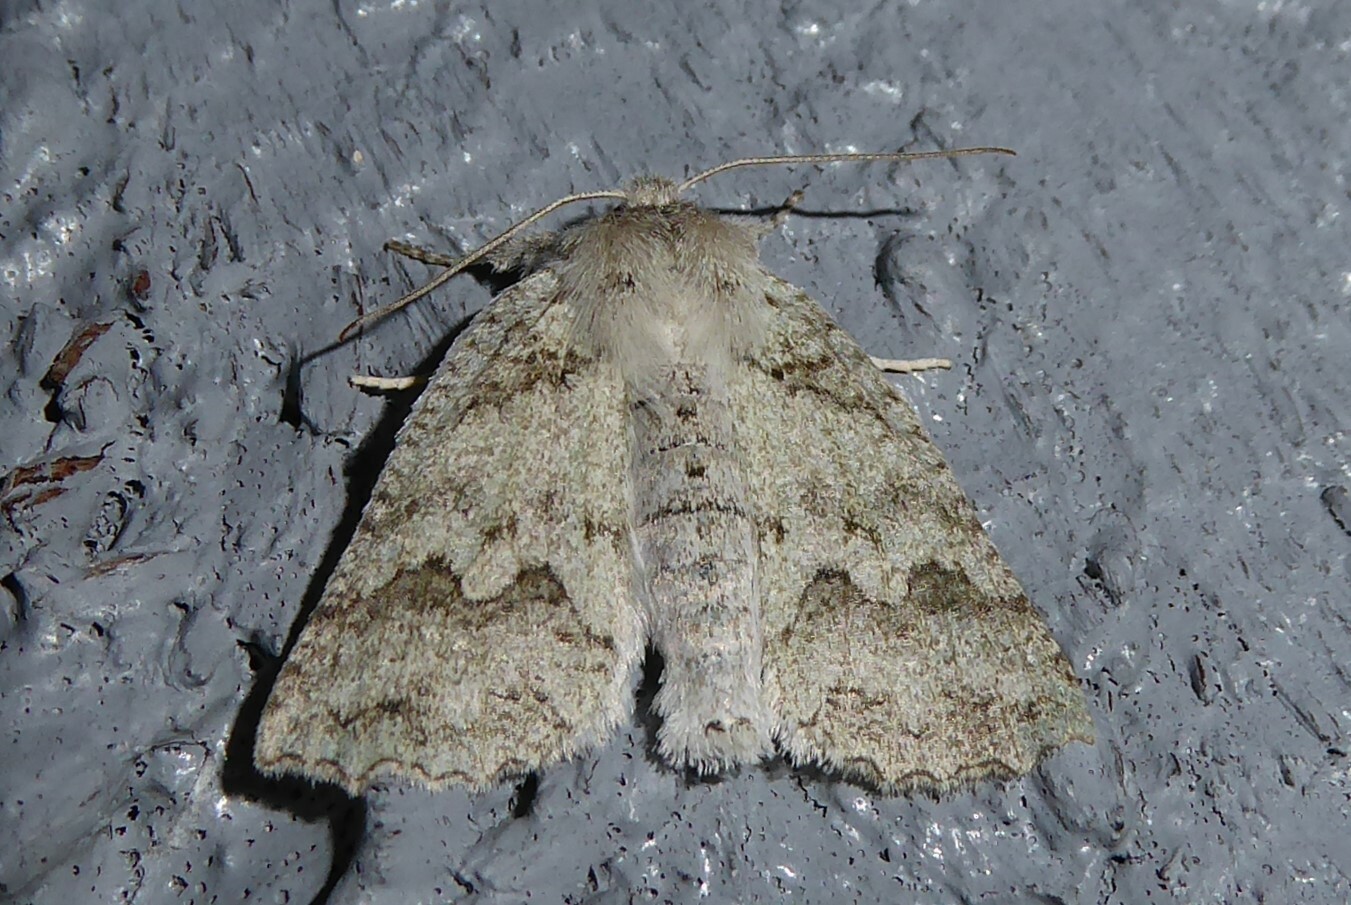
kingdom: Animalia
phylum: Arthropoda
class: Insecta
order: Lepidoptera
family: Geometridae
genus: Declana
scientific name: Declana niveata
